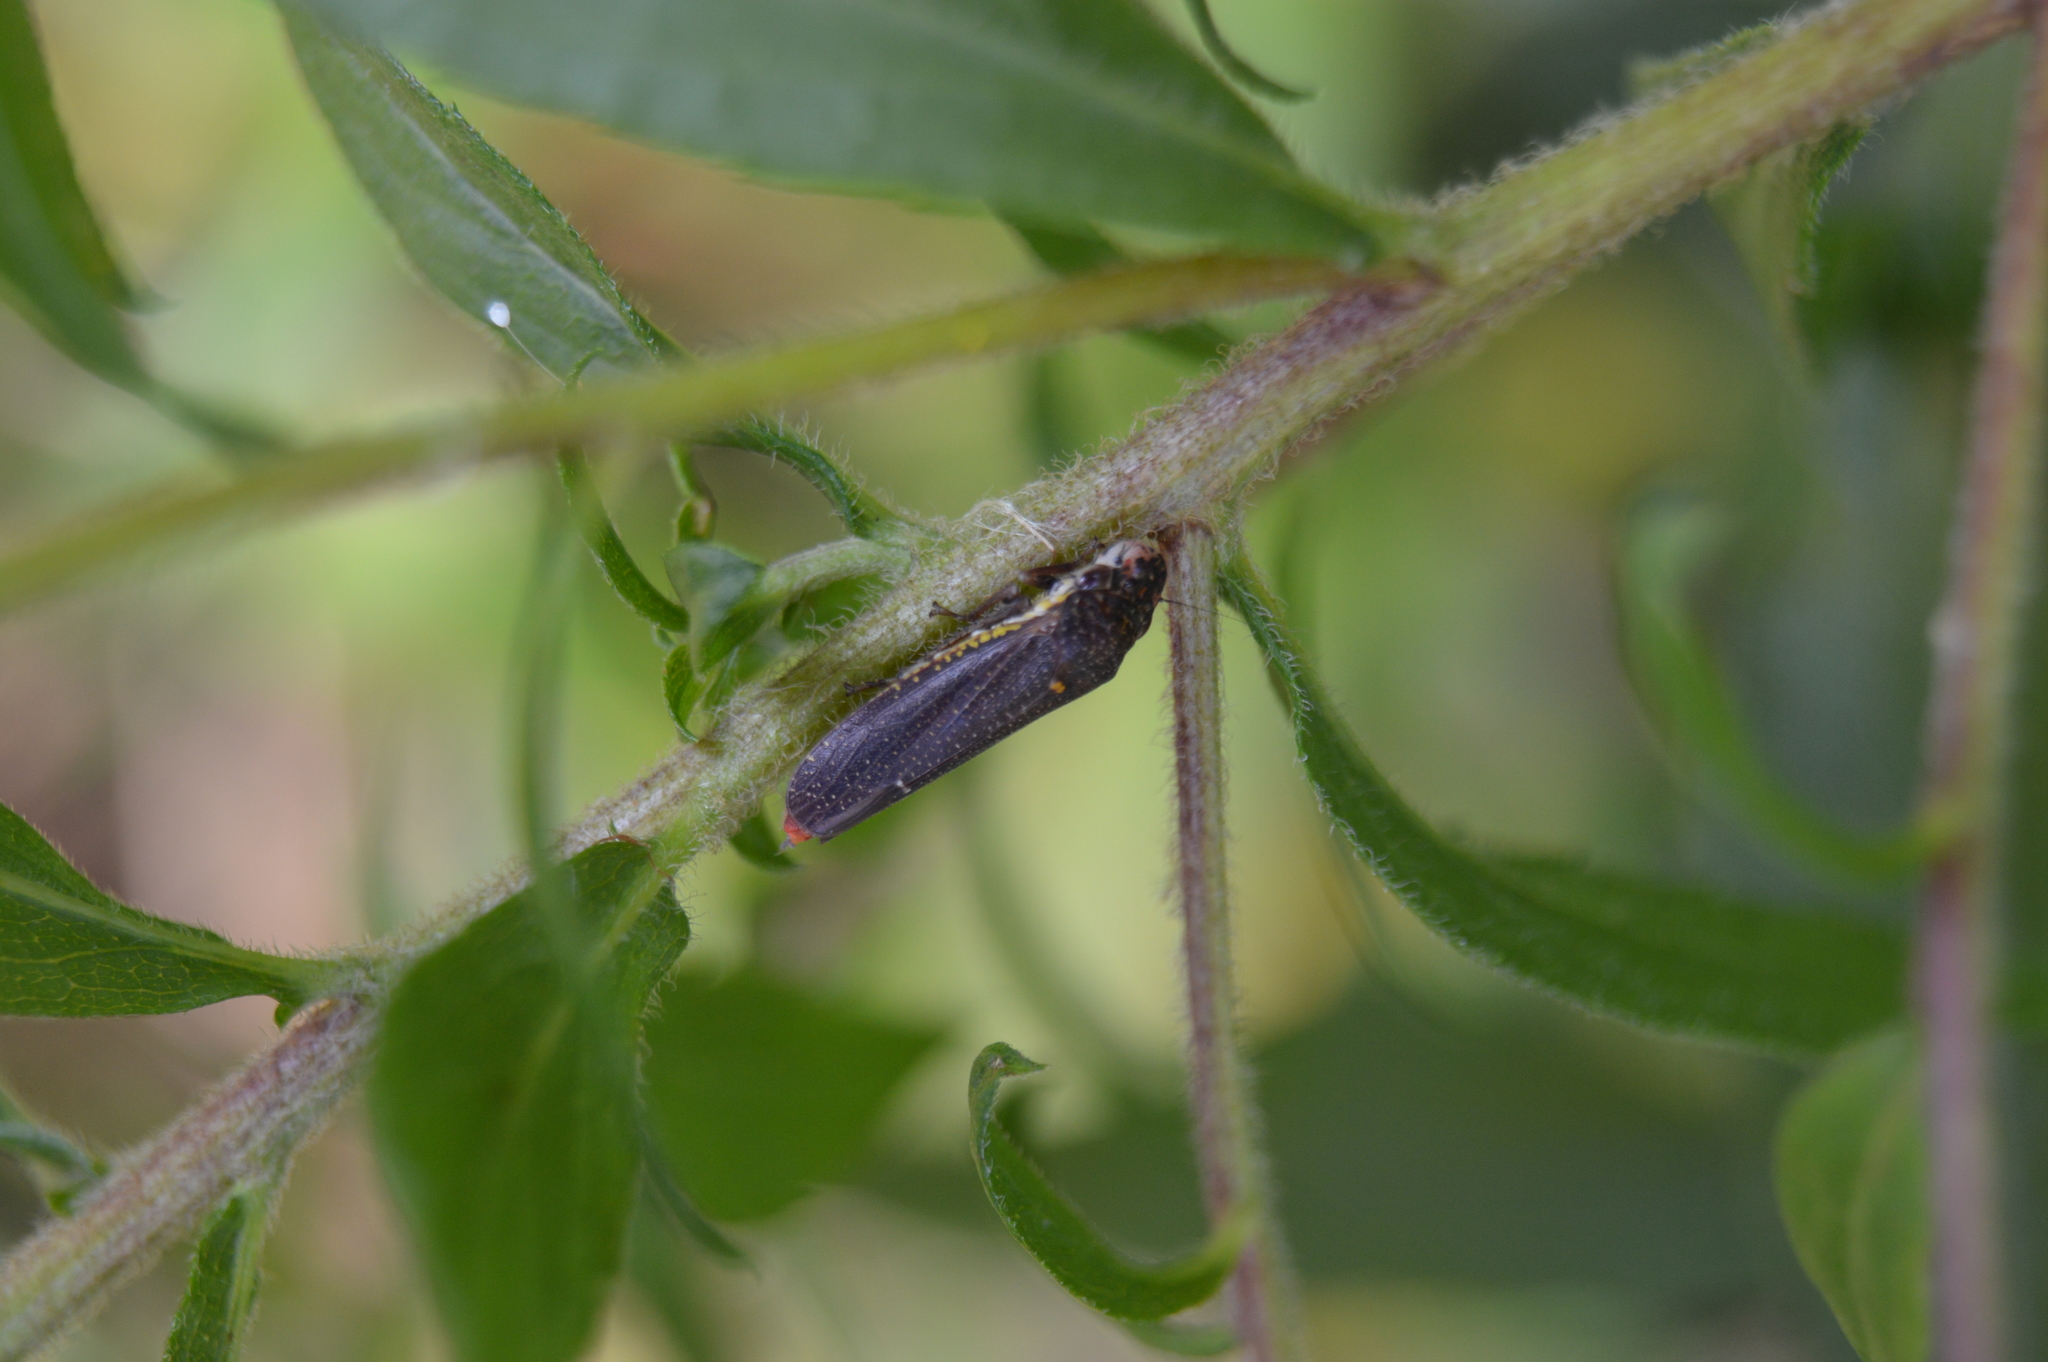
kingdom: Animalia
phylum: Arthropoda
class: Insecta
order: Hemiptera
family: Cicadellidae
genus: Paraulacizes
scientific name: Paraulacizes irrorata
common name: Speckled sharpshooter
